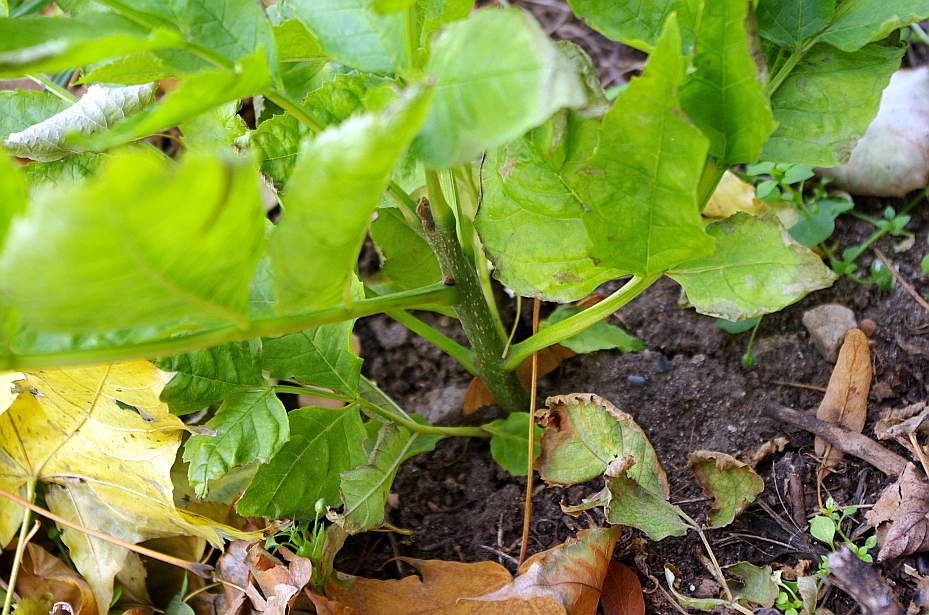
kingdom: Plantae
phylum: Tracheophyta
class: Magnoliopsida
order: Lamiales
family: Oleaceae
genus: Fraxinus
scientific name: Fraxinus pennsylvanica
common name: Green ash
